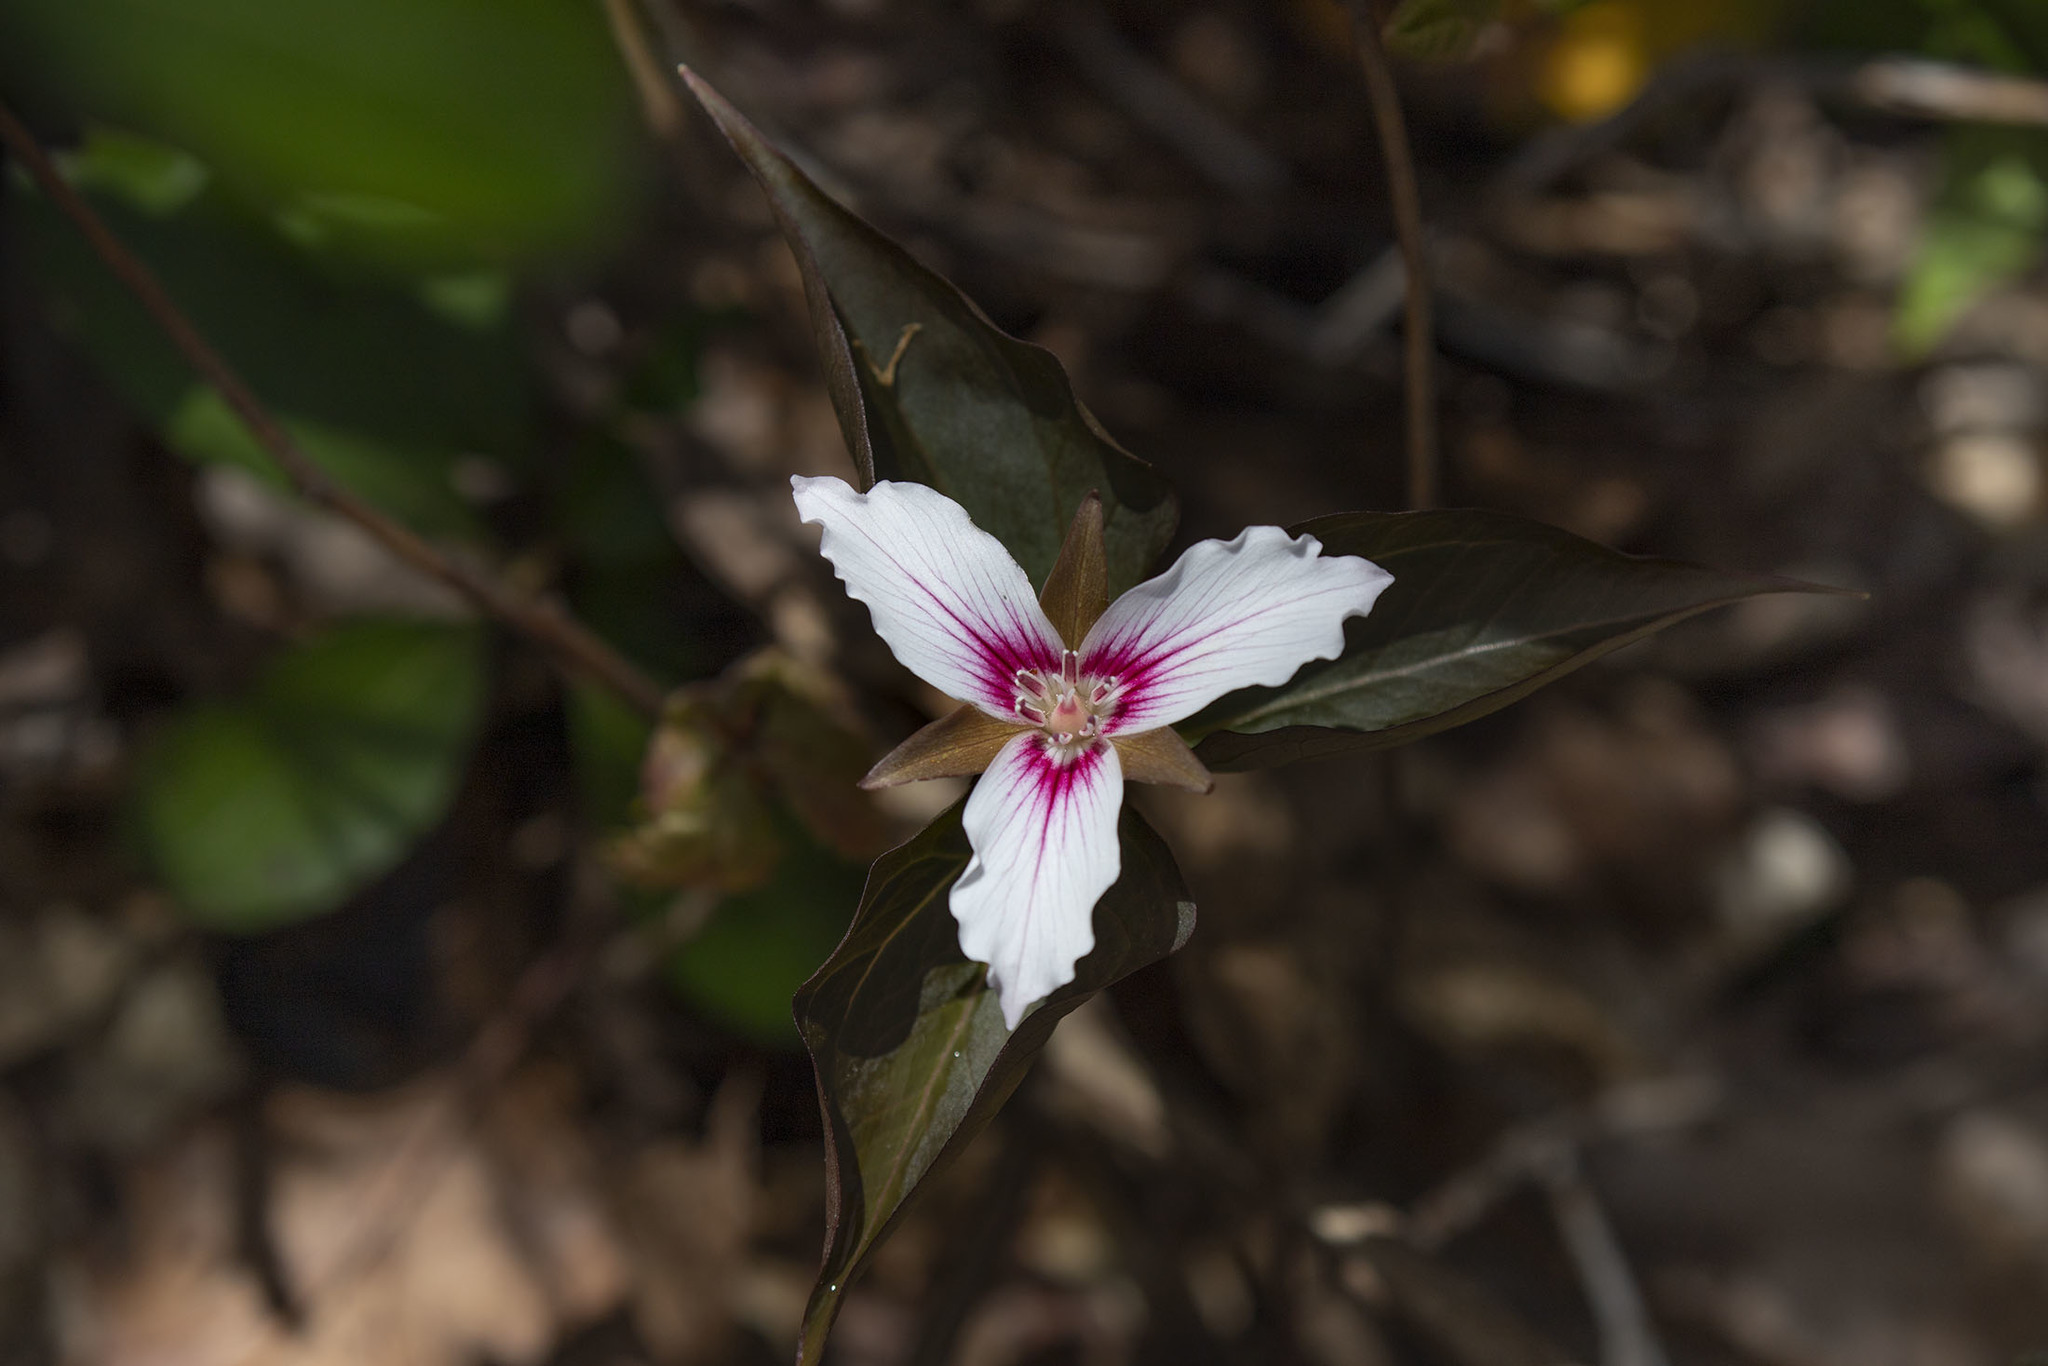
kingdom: Plantae
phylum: Tracheophyta
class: Liliopsida
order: Liliales
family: Melanthiaceae
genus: Trillium
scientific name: Trillium undulatum
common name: Paint trillium
